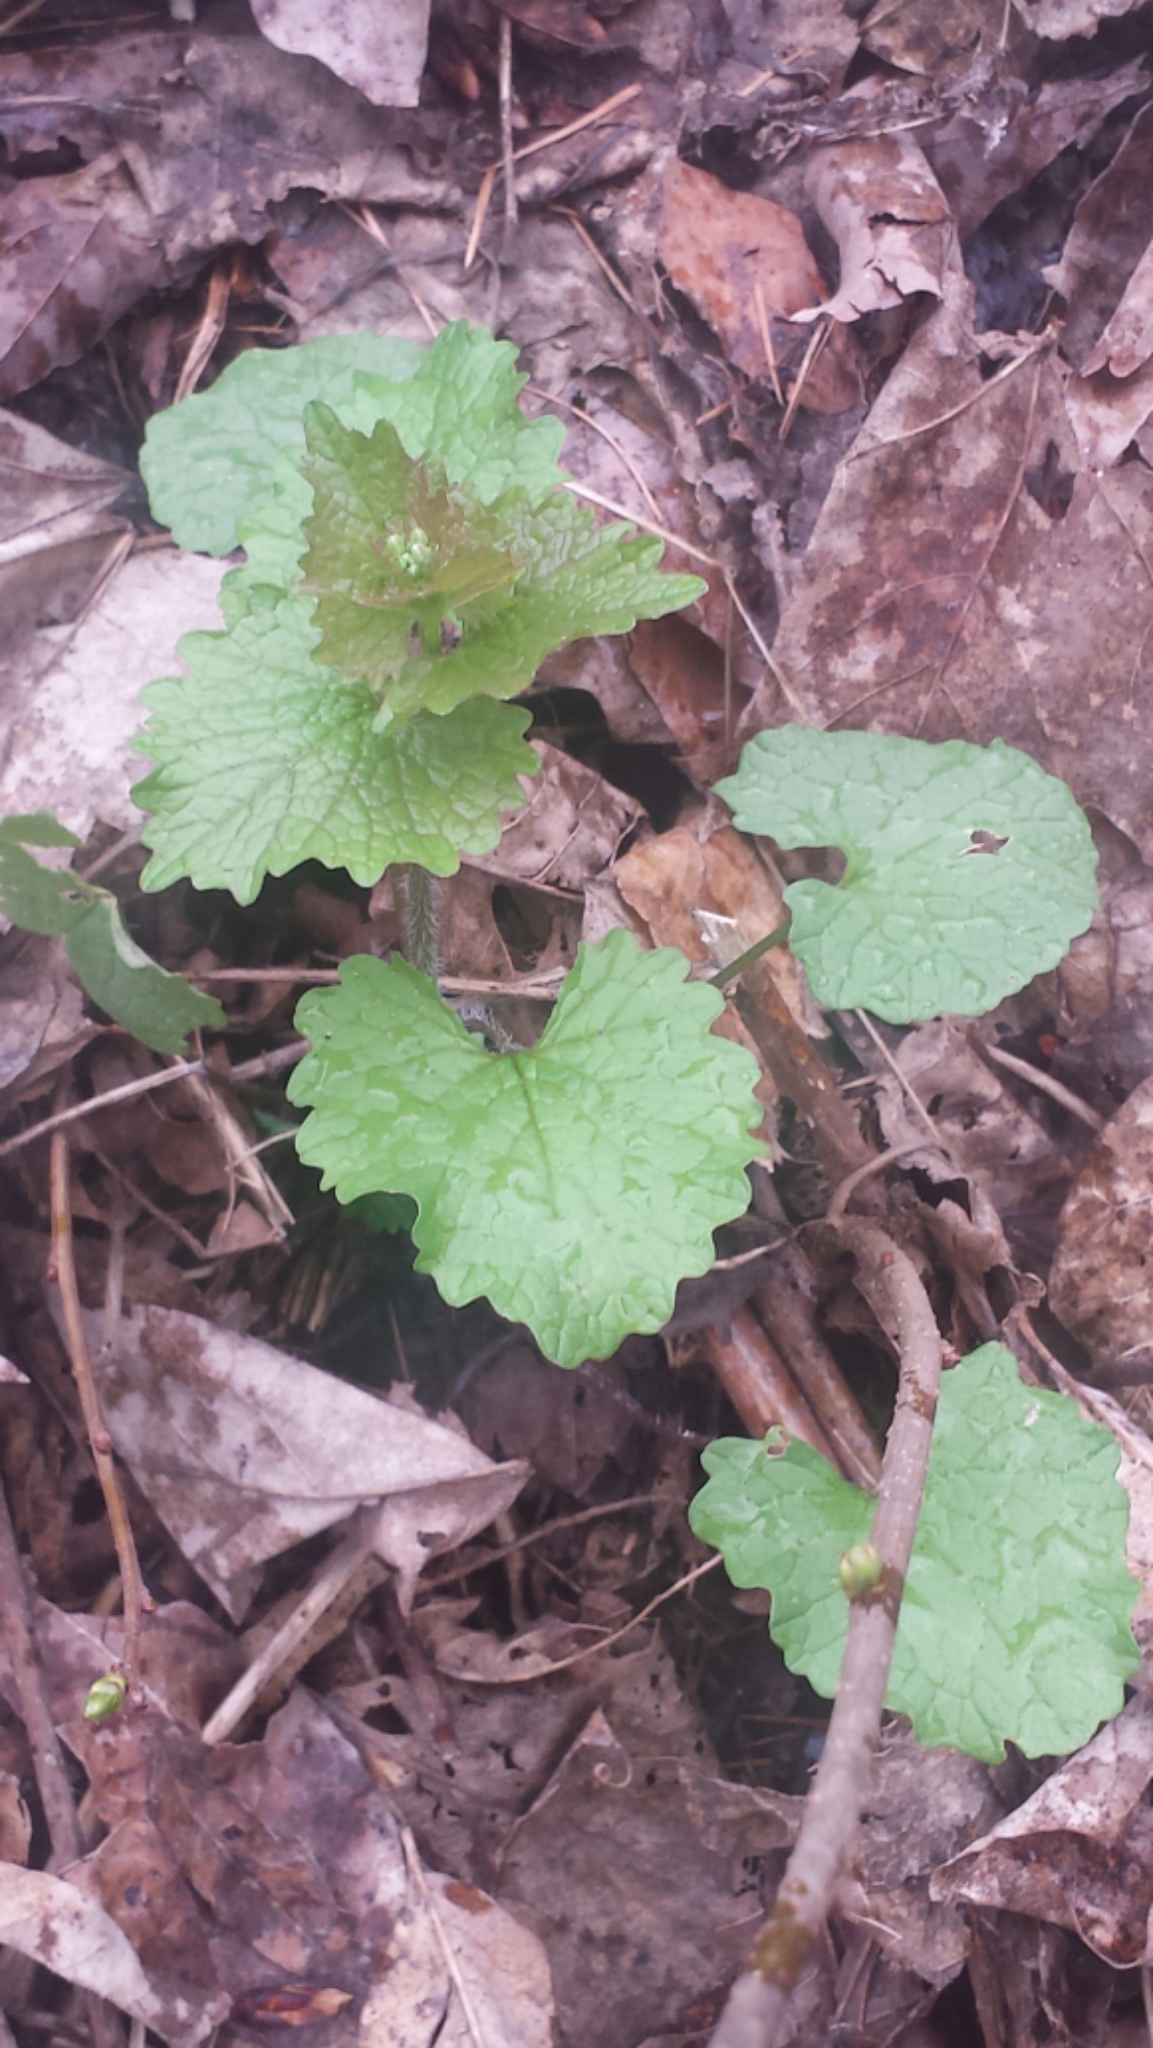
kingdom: Plantae
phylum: Tracheophyta
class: Magnoliopsida
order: Brassicales
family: Brassicaceae
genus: Alliaria
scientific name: Alliaria petiolata
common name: Garlic mustard
